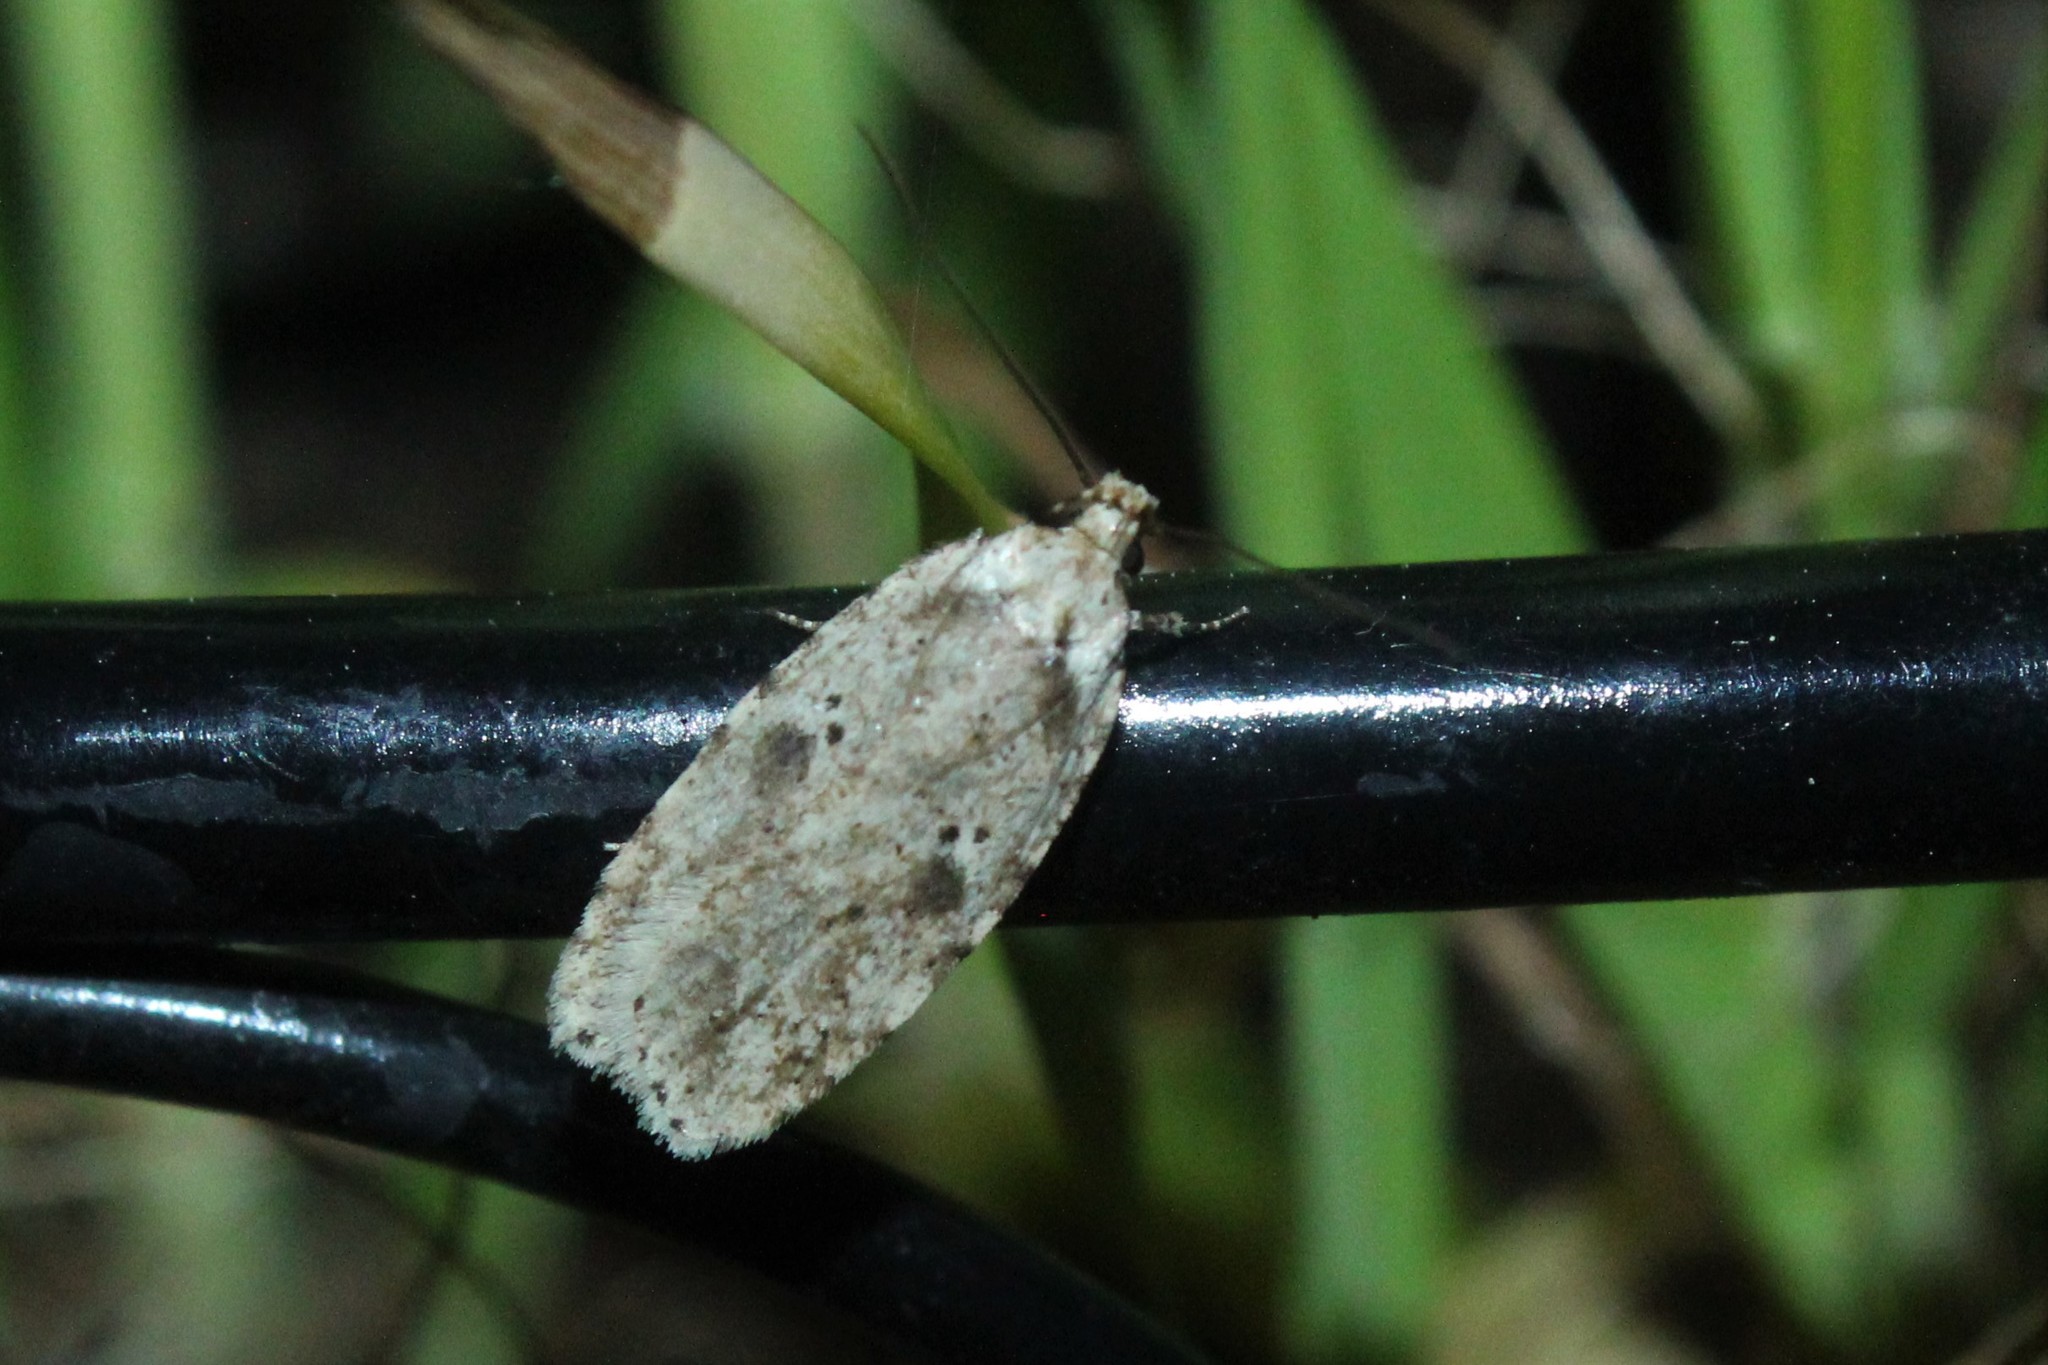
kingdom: Animalia
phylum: Arthropoda
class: Insecta
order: Lepidoptera
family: Depressariidae
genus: Agonopterix
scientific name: Agonopterix pulvipennella
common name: Goldenrod leafffolder
